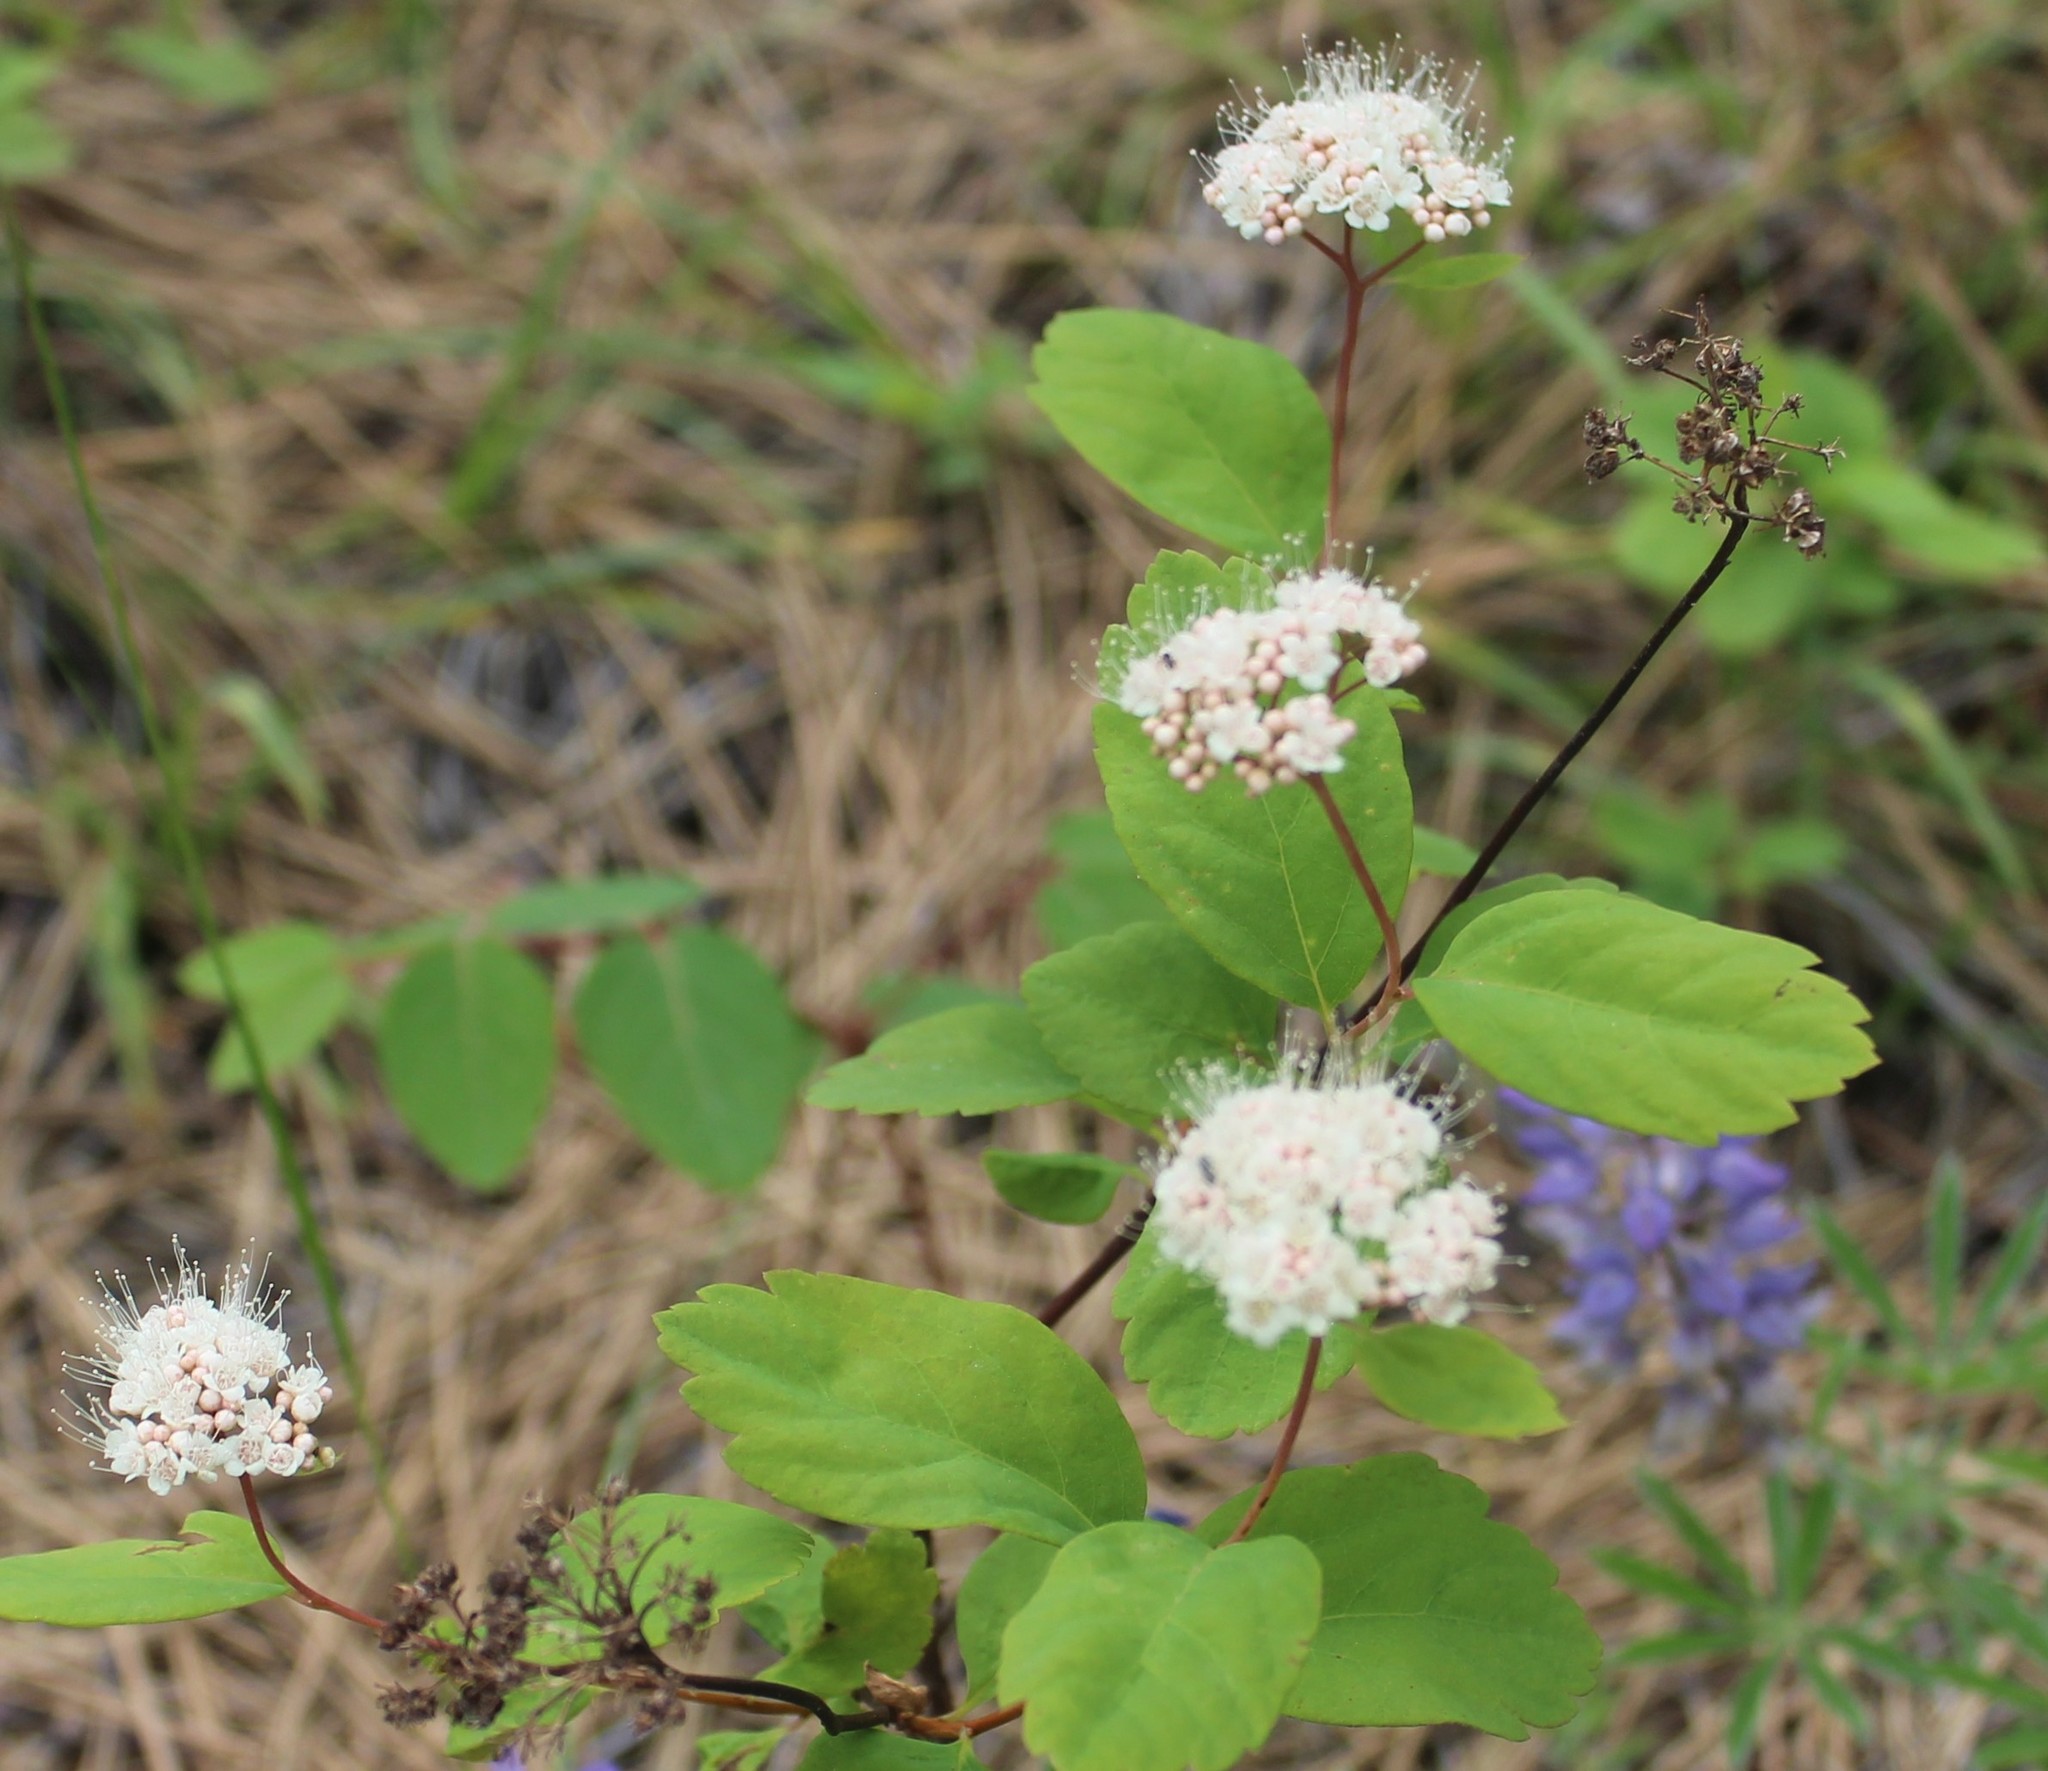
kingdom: Plantae
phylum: Tracheophyta
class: Magnoliopsida
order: Rosales
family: Rosaceae
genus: Spiraea
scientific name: Spiraea lucida
